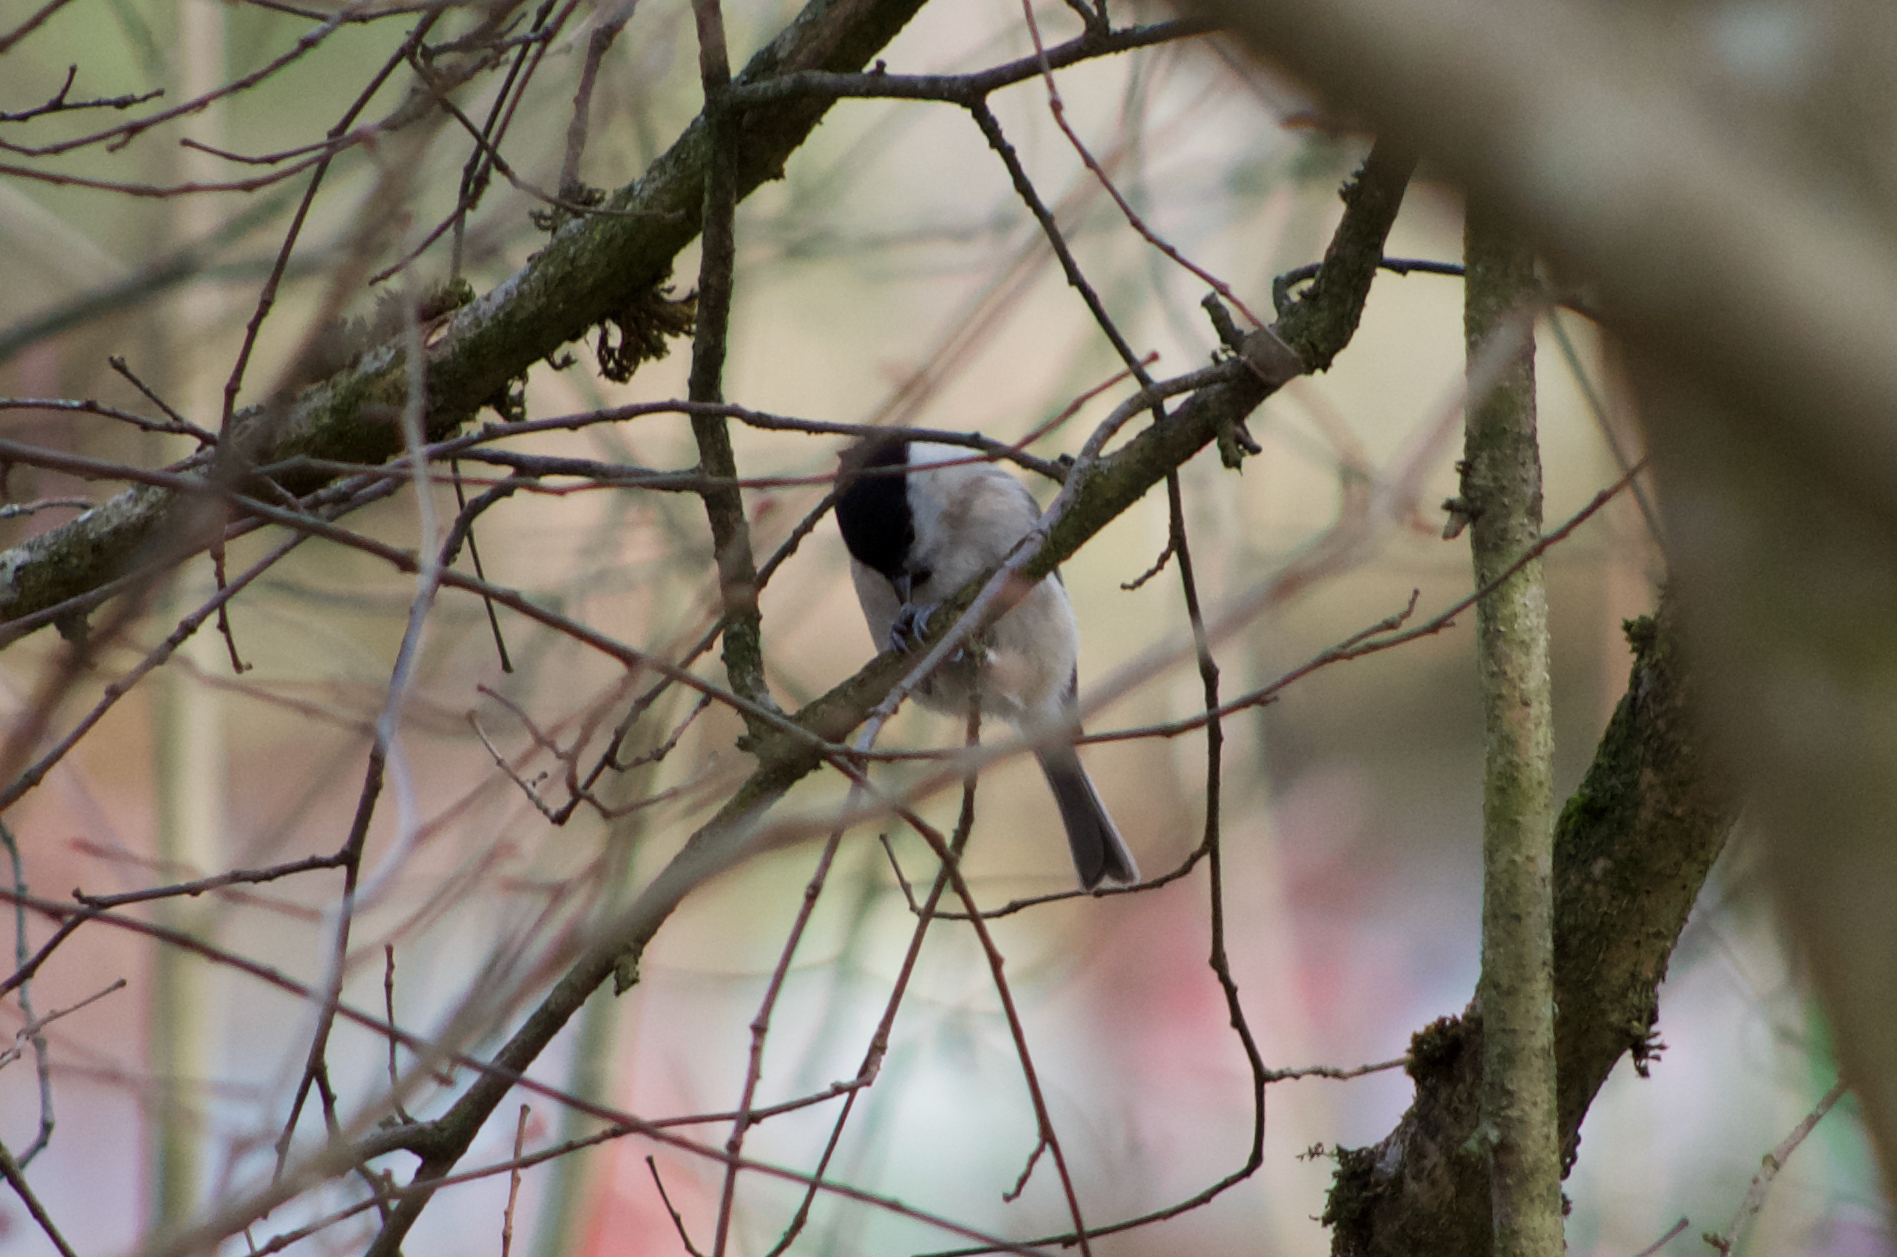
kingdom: Animalia
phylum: Chordata
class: Aves
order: Passeriformes
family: Paridae
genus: Poecile
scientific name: Poecile montanus
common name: Willow tit
